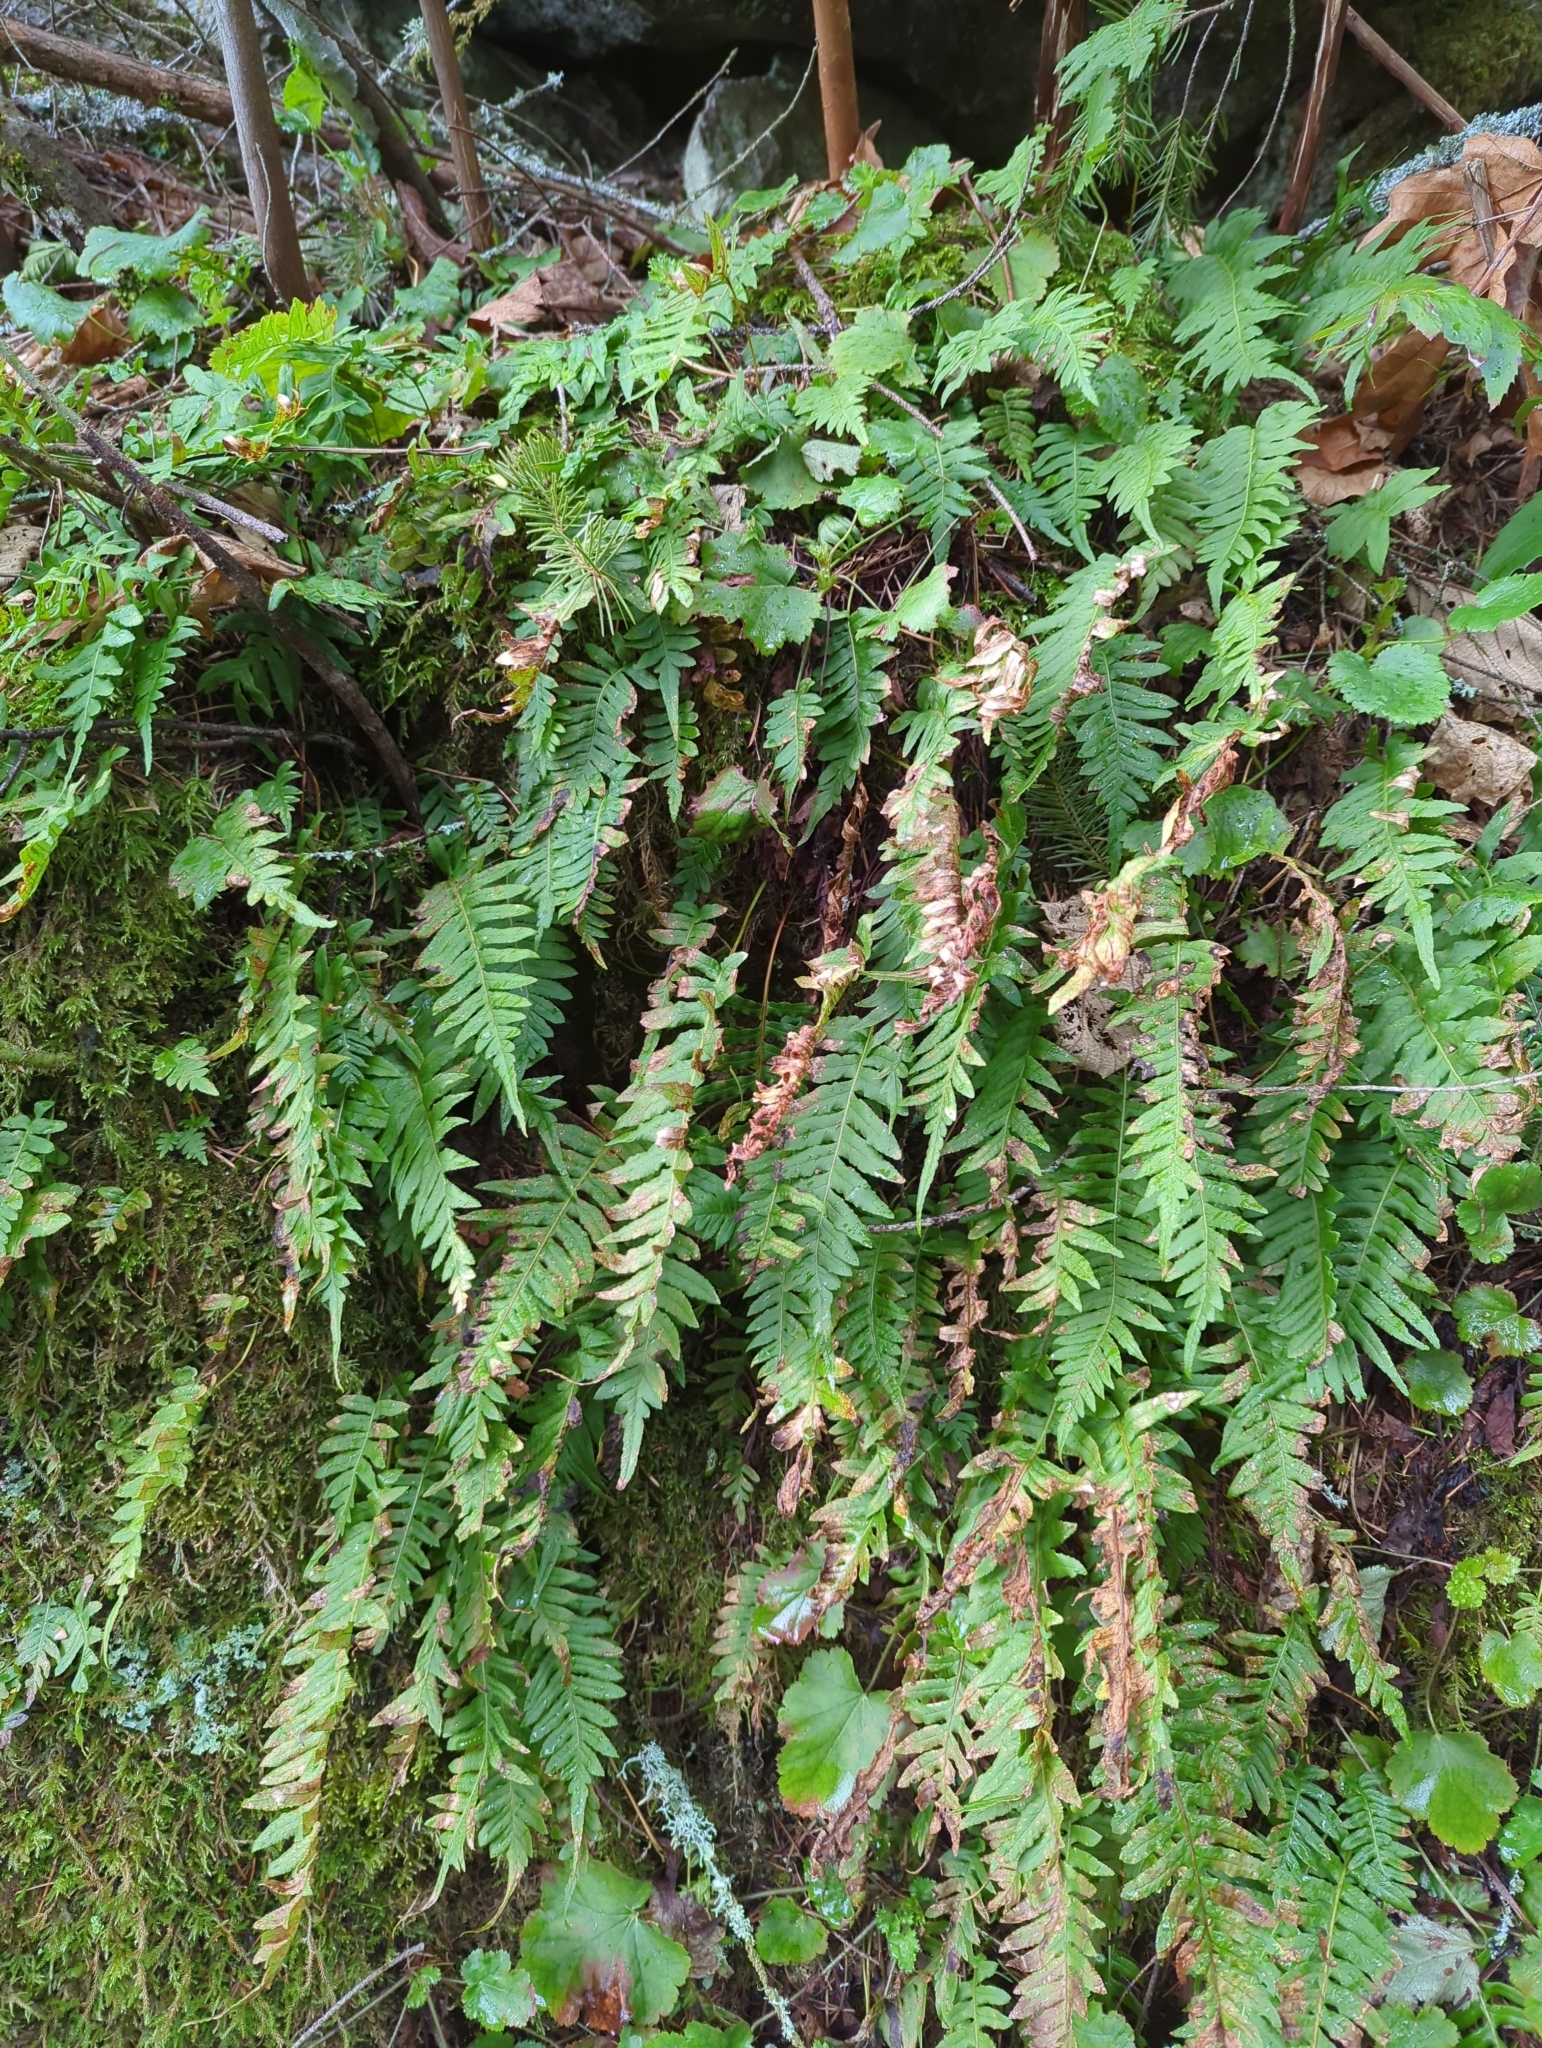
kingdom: Plantae
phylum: Tracheophyta
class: Polypodiopsida
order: Polypodiales
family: Polypodiaceae
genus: Polypodium
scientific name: Polypodium glycyrrhiza
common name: Licorice fern
